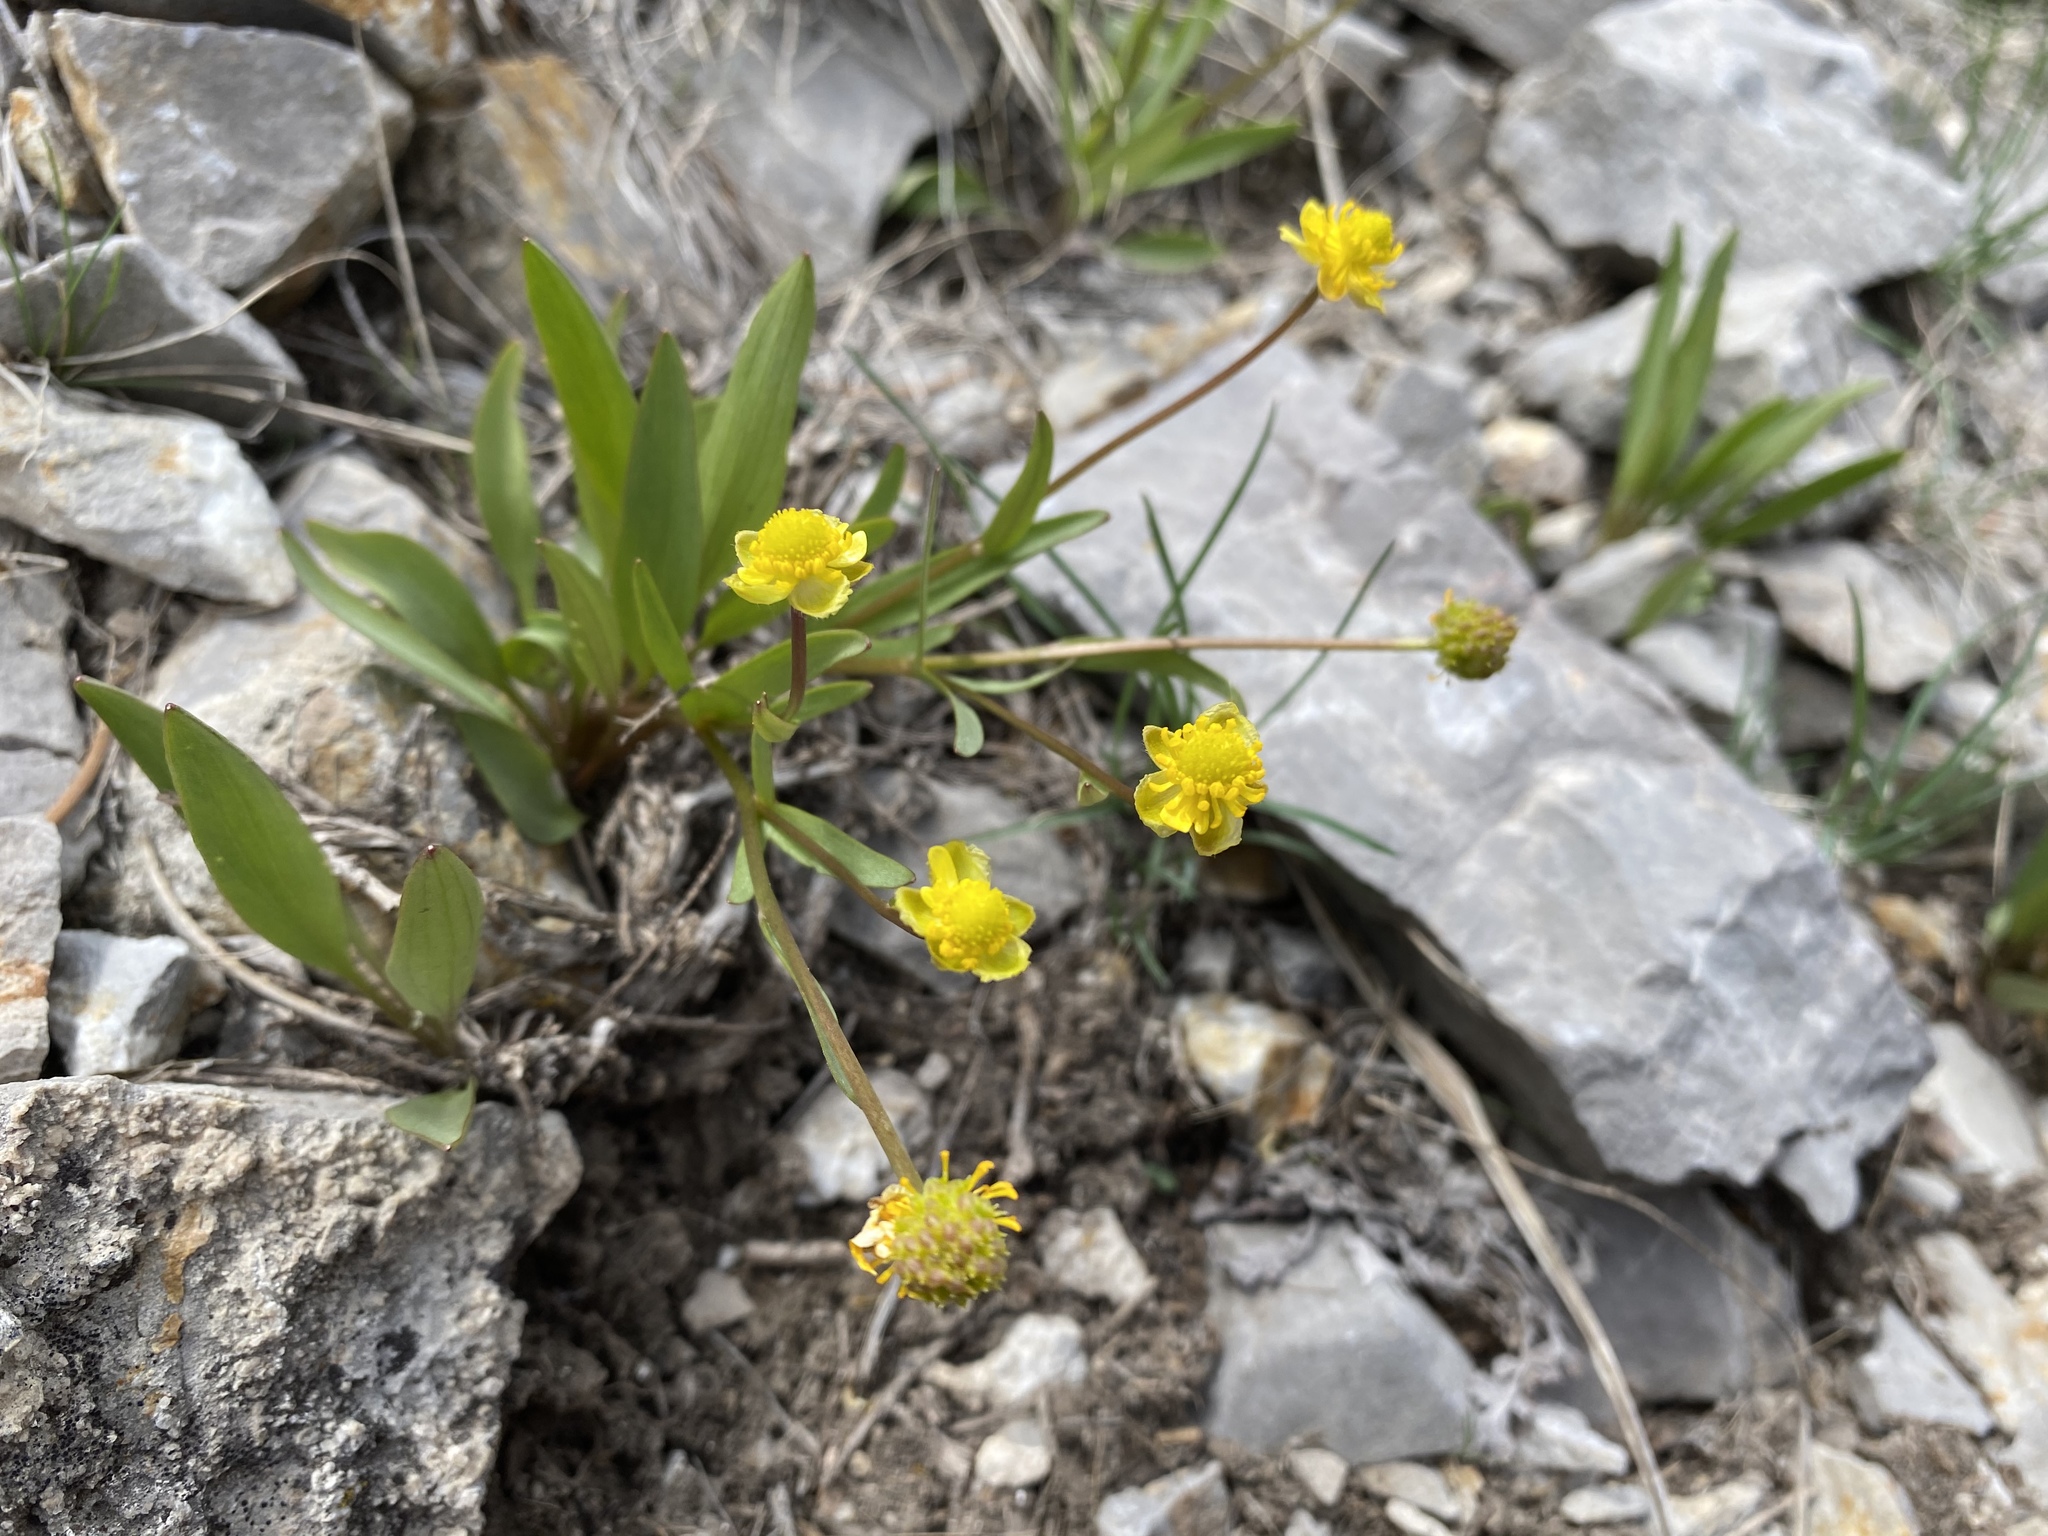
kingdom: Plantae
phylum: Tracheophyta
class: Magnoliopsida
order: Ranunculales
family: Ranunculaceae
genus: Ranunculus
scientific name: Ranunculus glaberrimus
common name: Sagebrush buttercup
